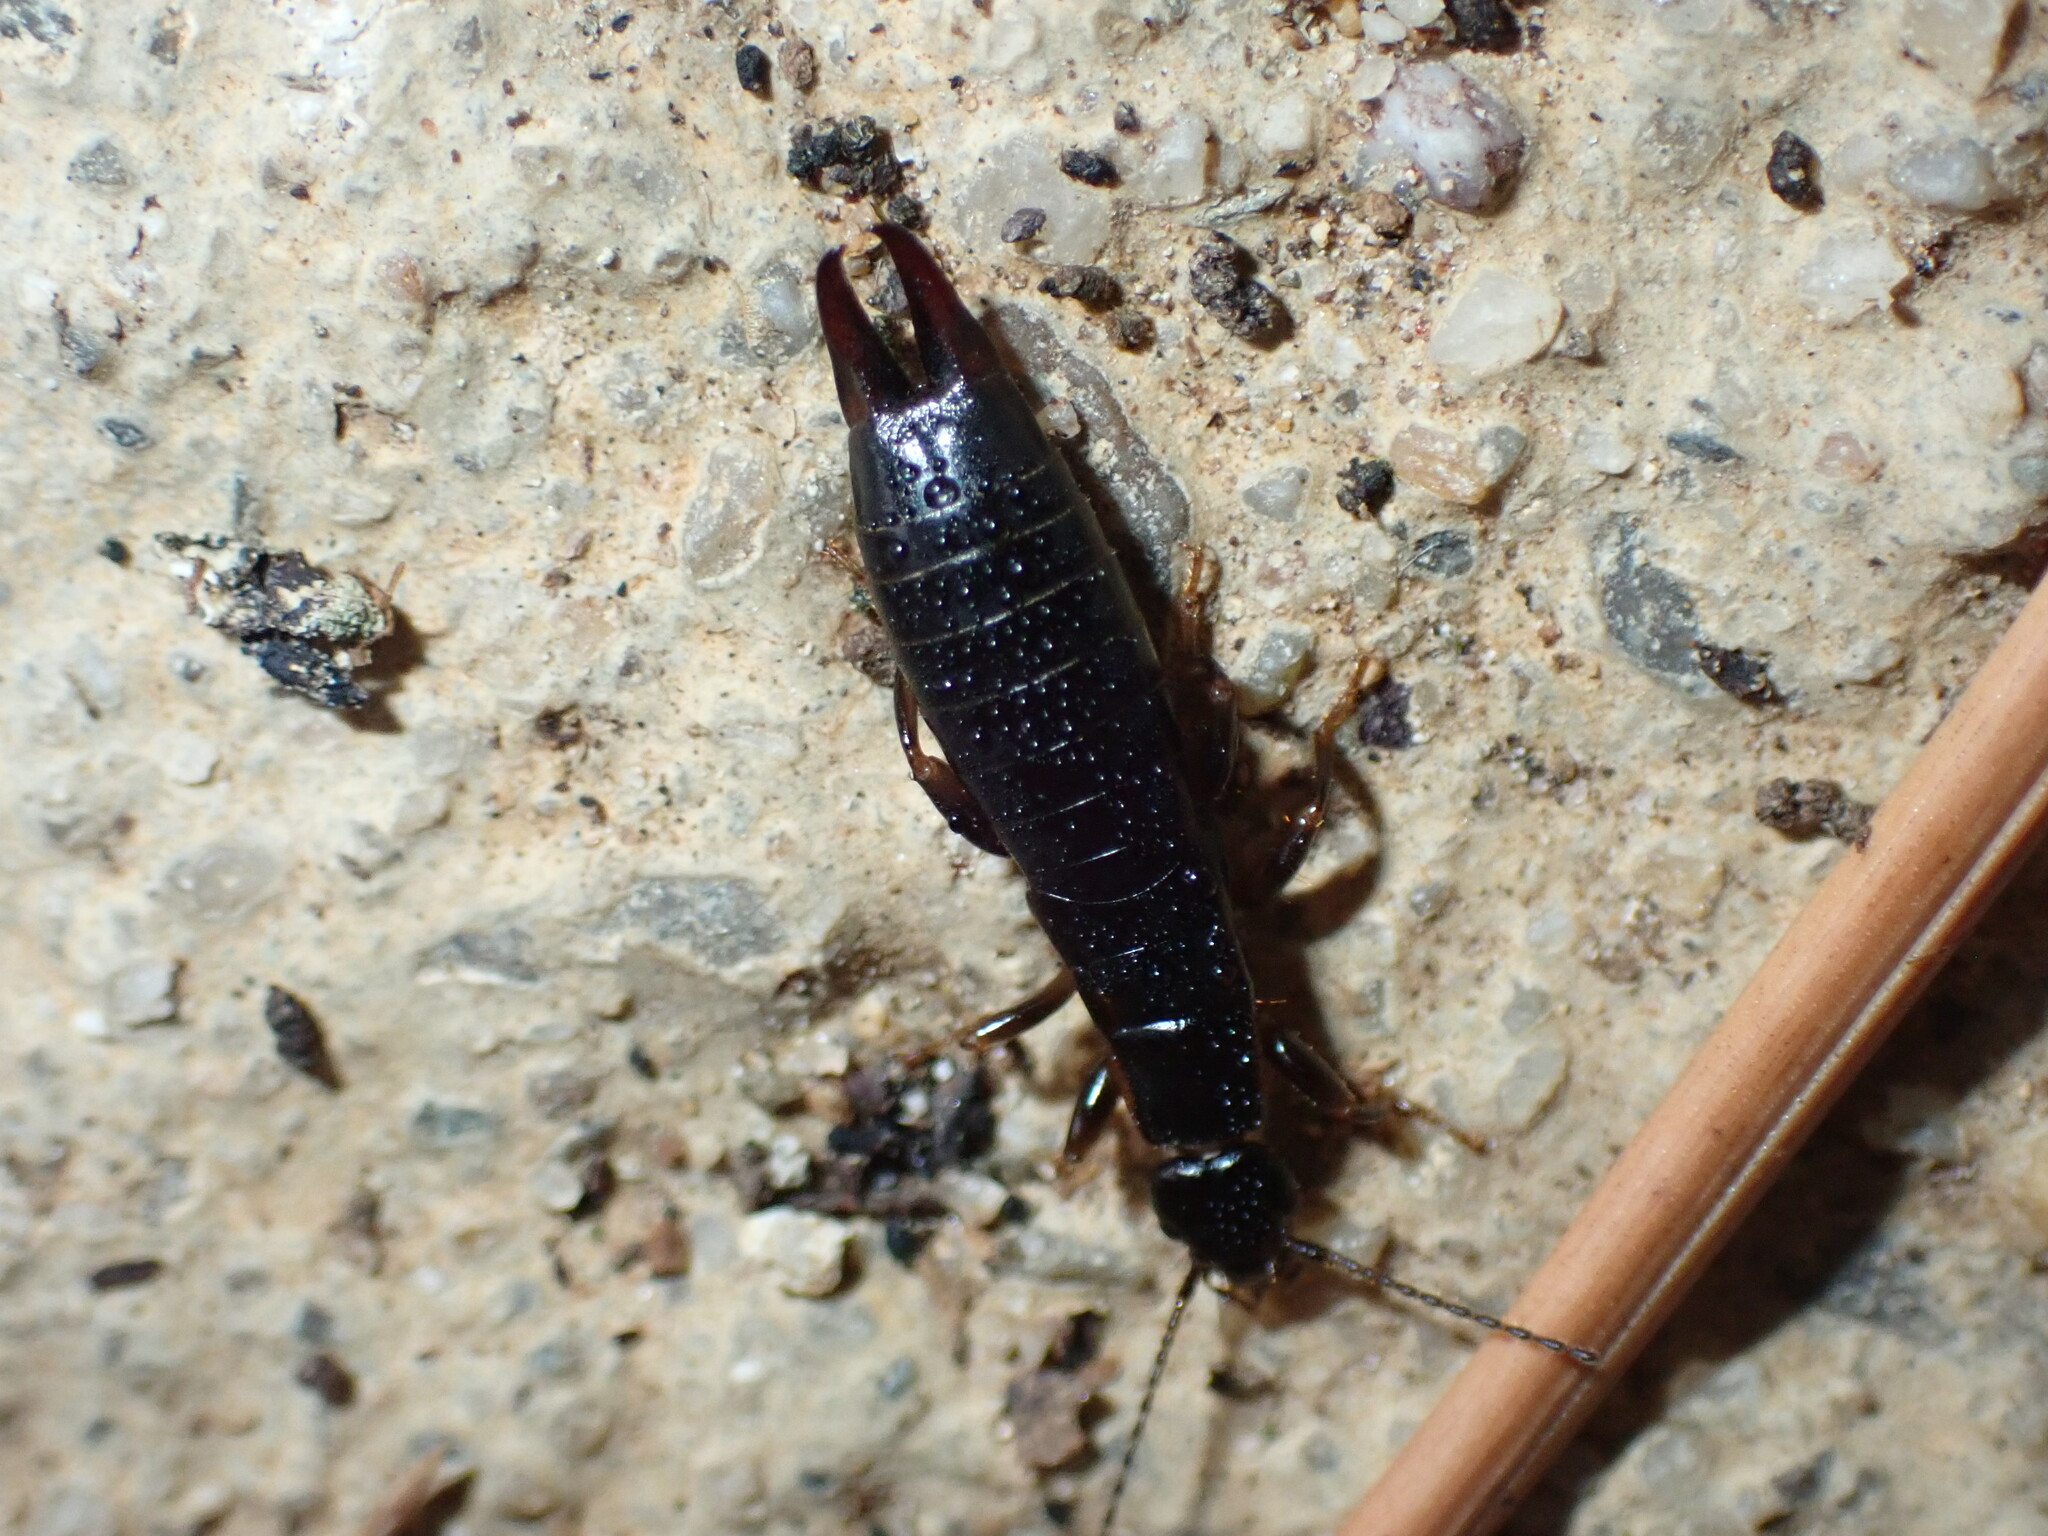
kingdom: Animalia
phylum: Arthropoda
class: Insecta
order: Dermaptera
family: Anisolabididae
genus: Euborellia
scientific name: Euborellia moesta
